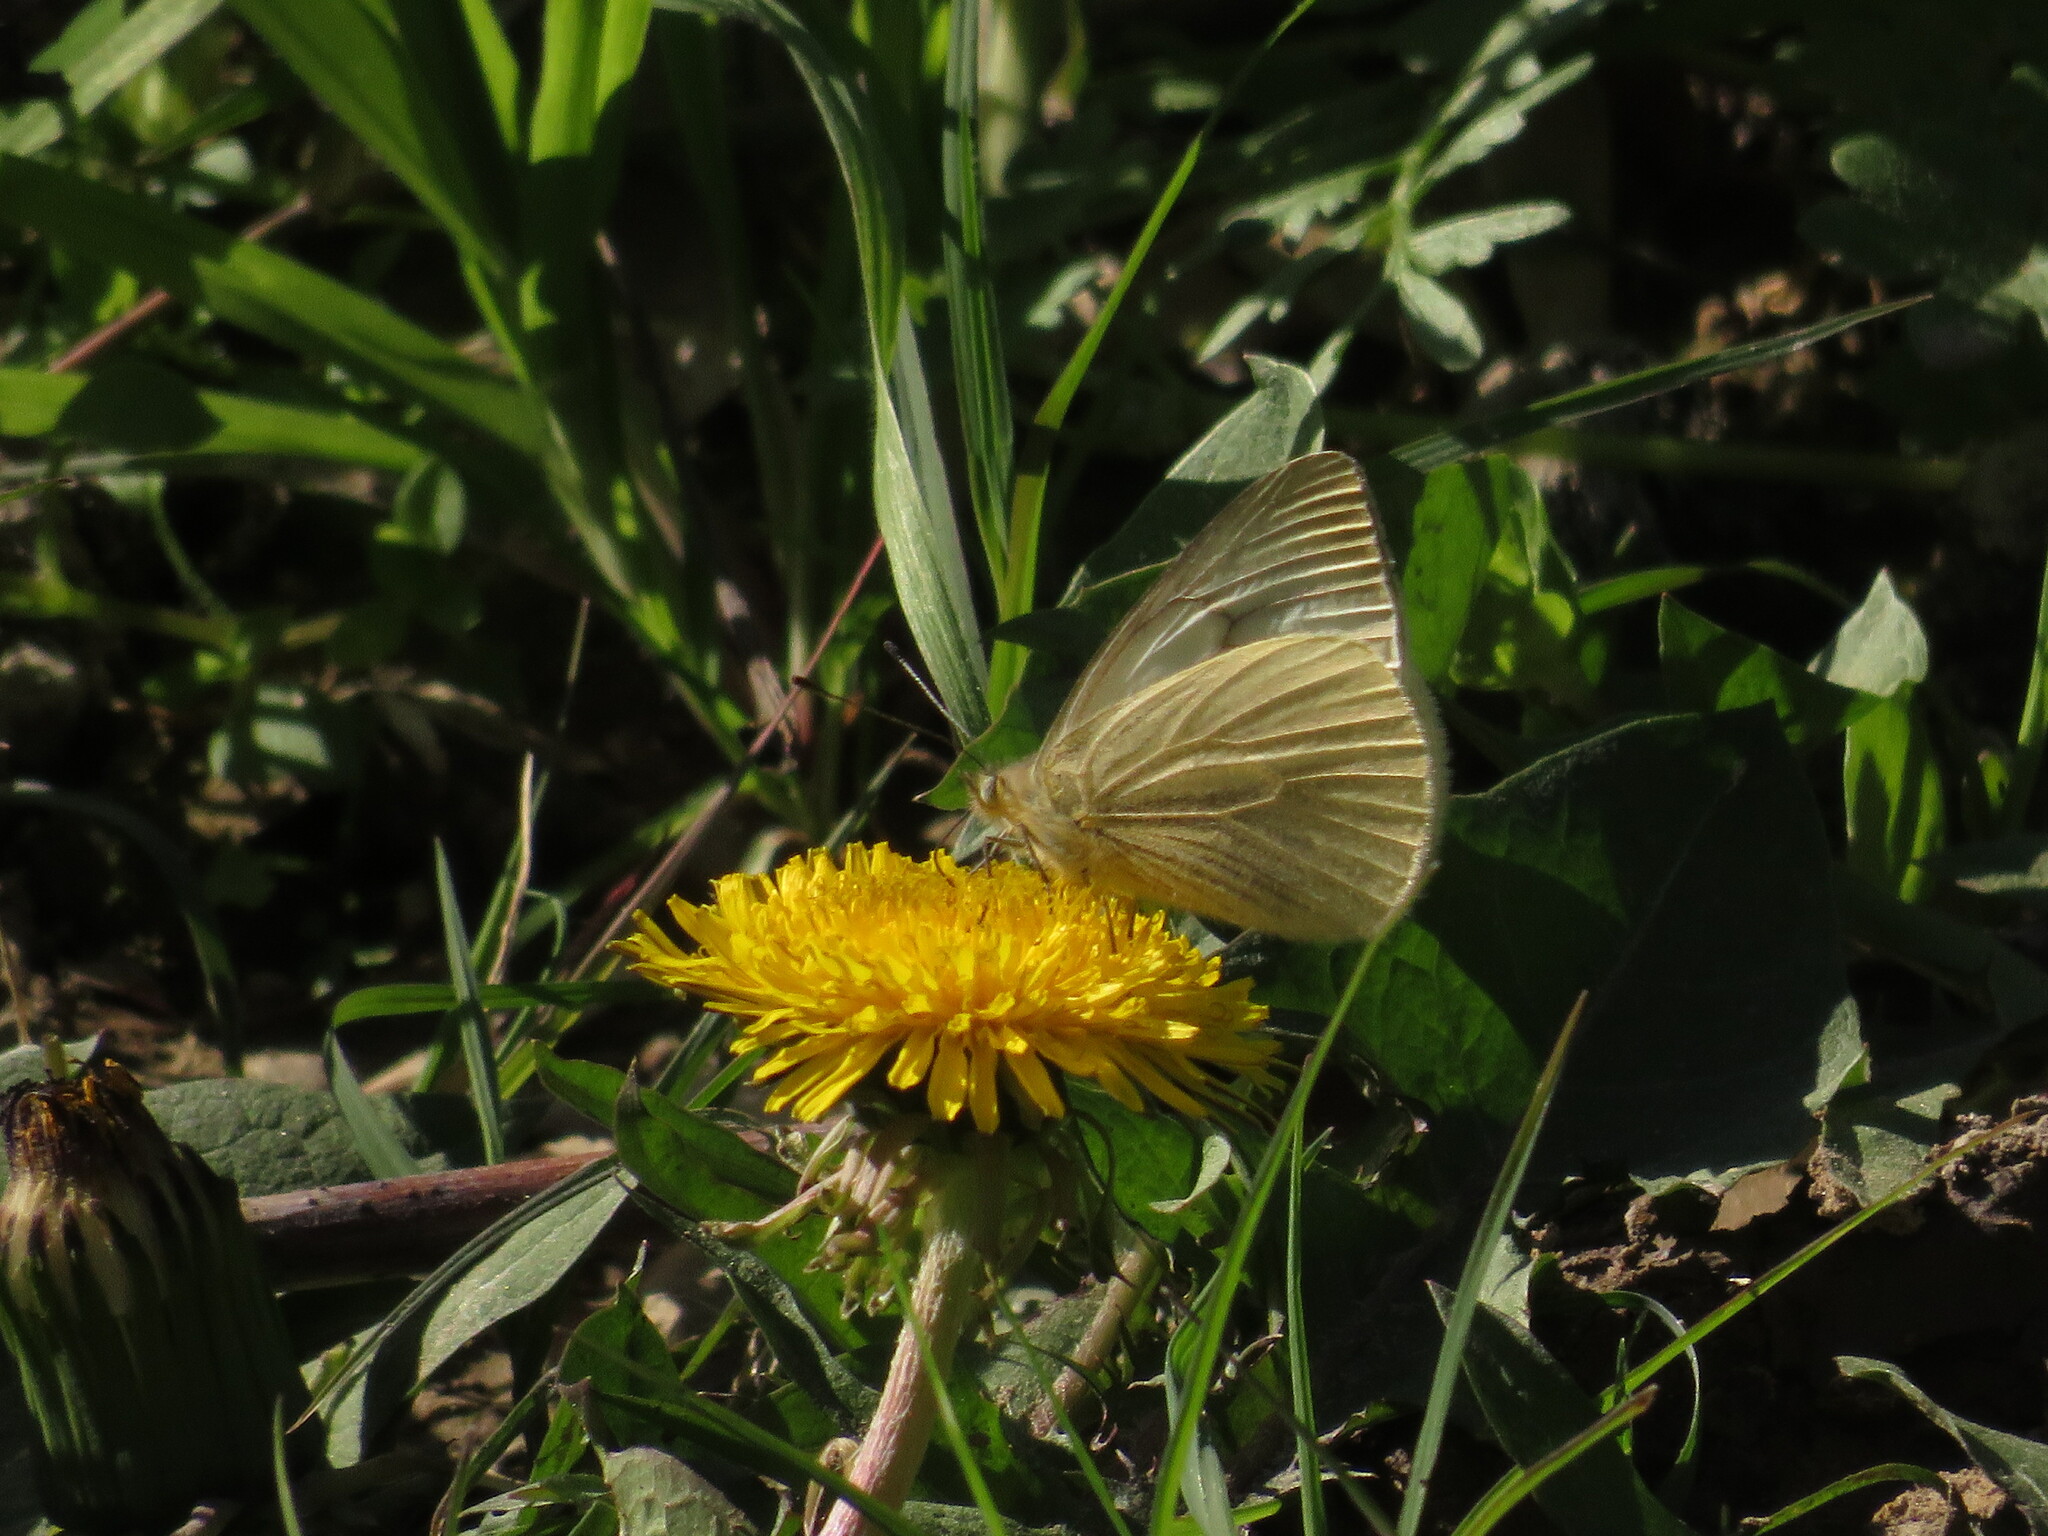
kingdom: Animalia
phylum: Arthropoda
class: Insecta
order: Lepidoptera
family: Pieridae
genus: Theochila
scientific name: Theochila maenacte
